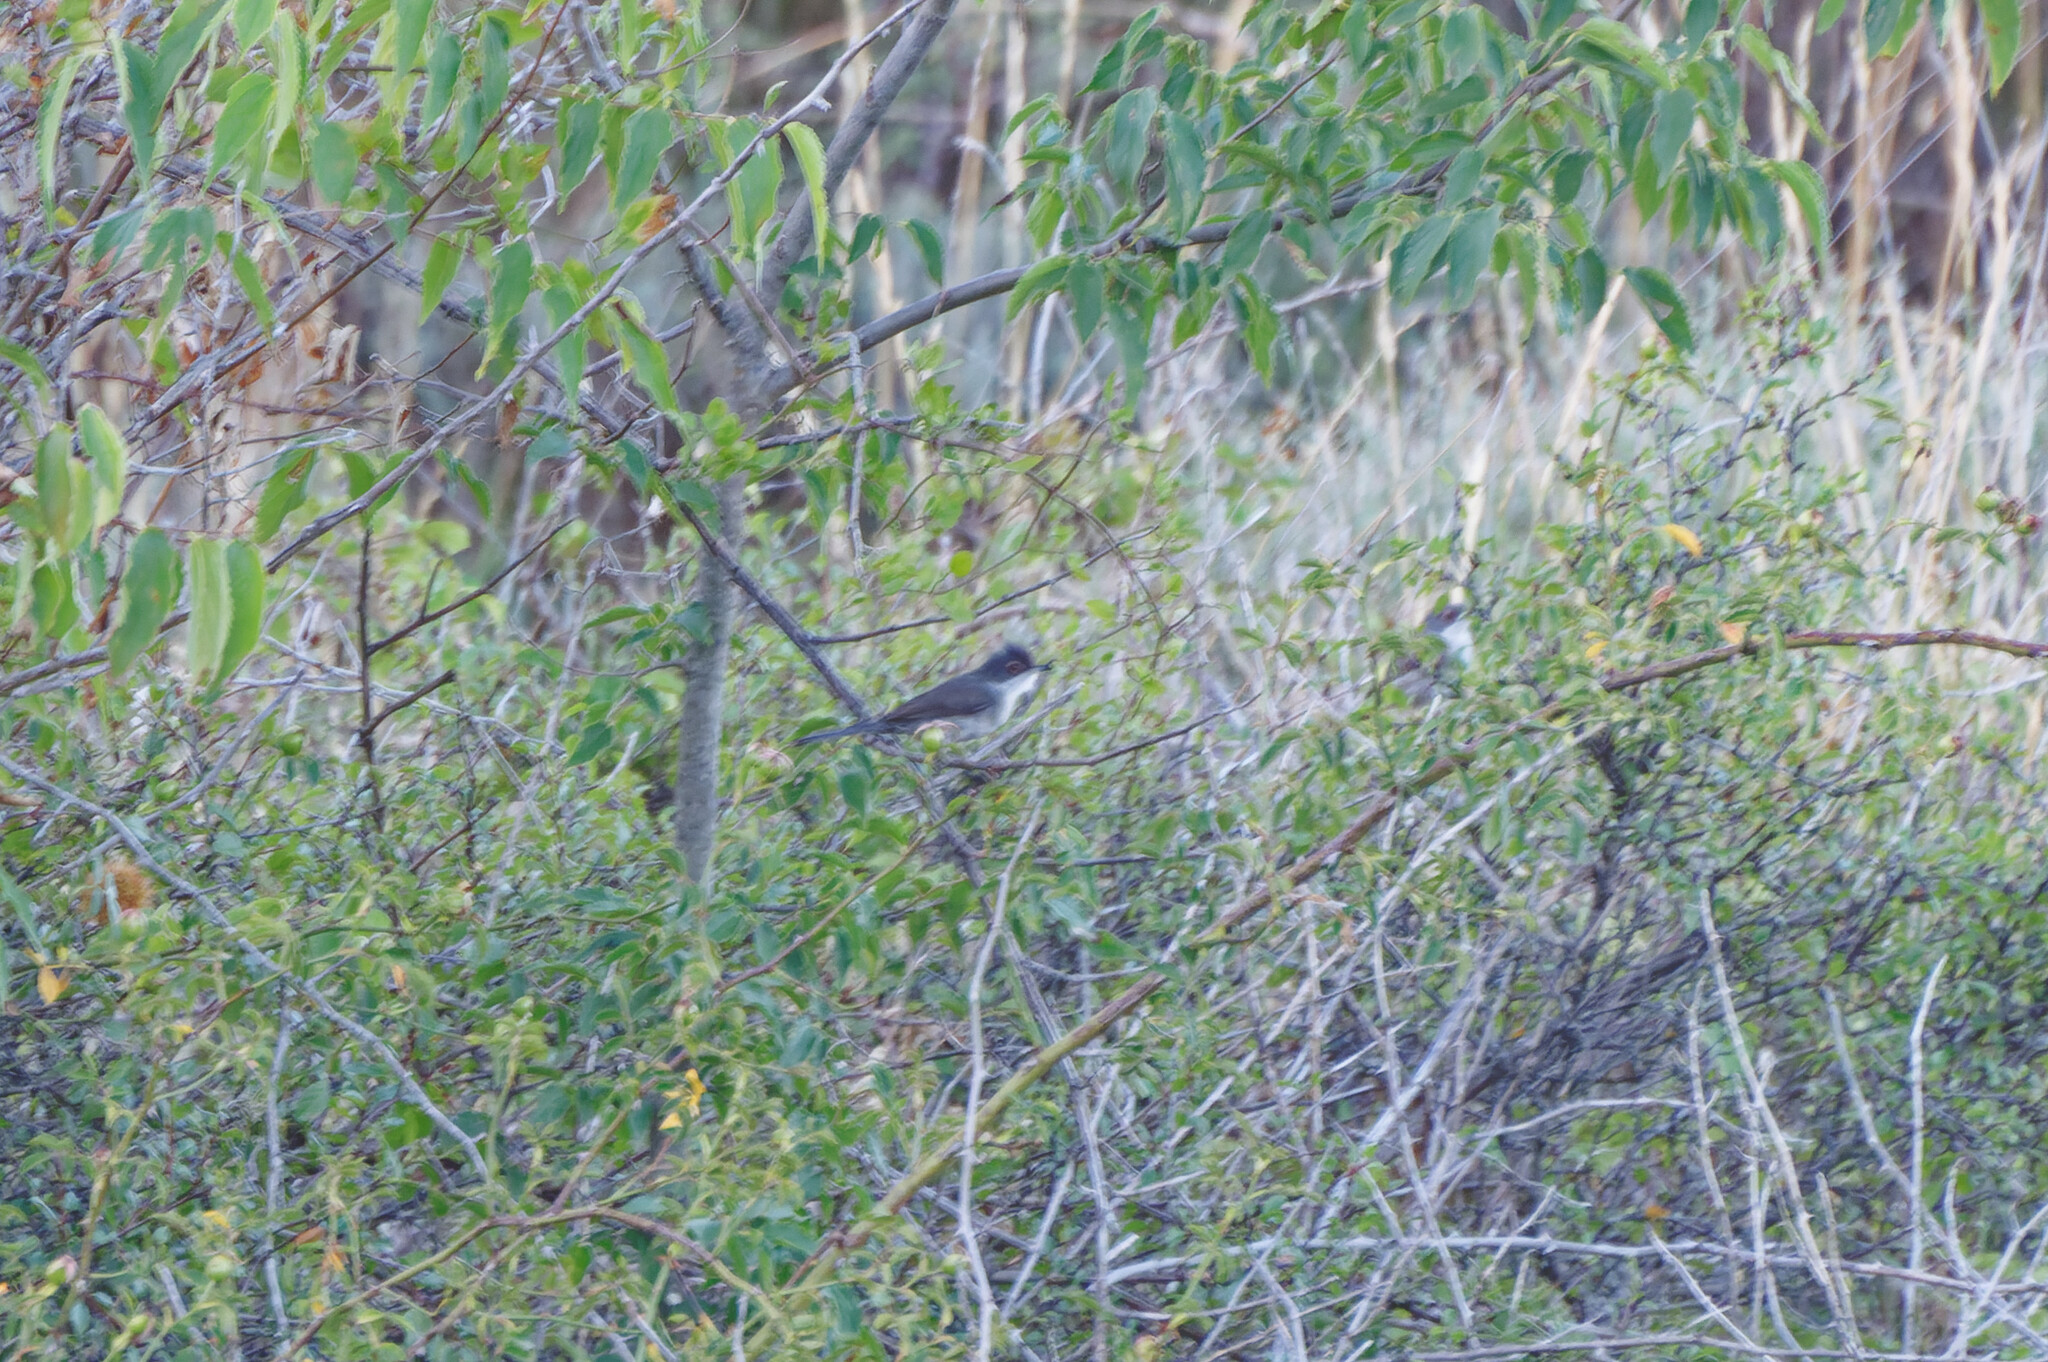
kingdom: Animalia
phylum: Chordata
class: Aves
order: Passeriformes
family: Sylviidae
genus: Curruca
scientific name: Curruca melanocephala
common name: Sardinian warbler
